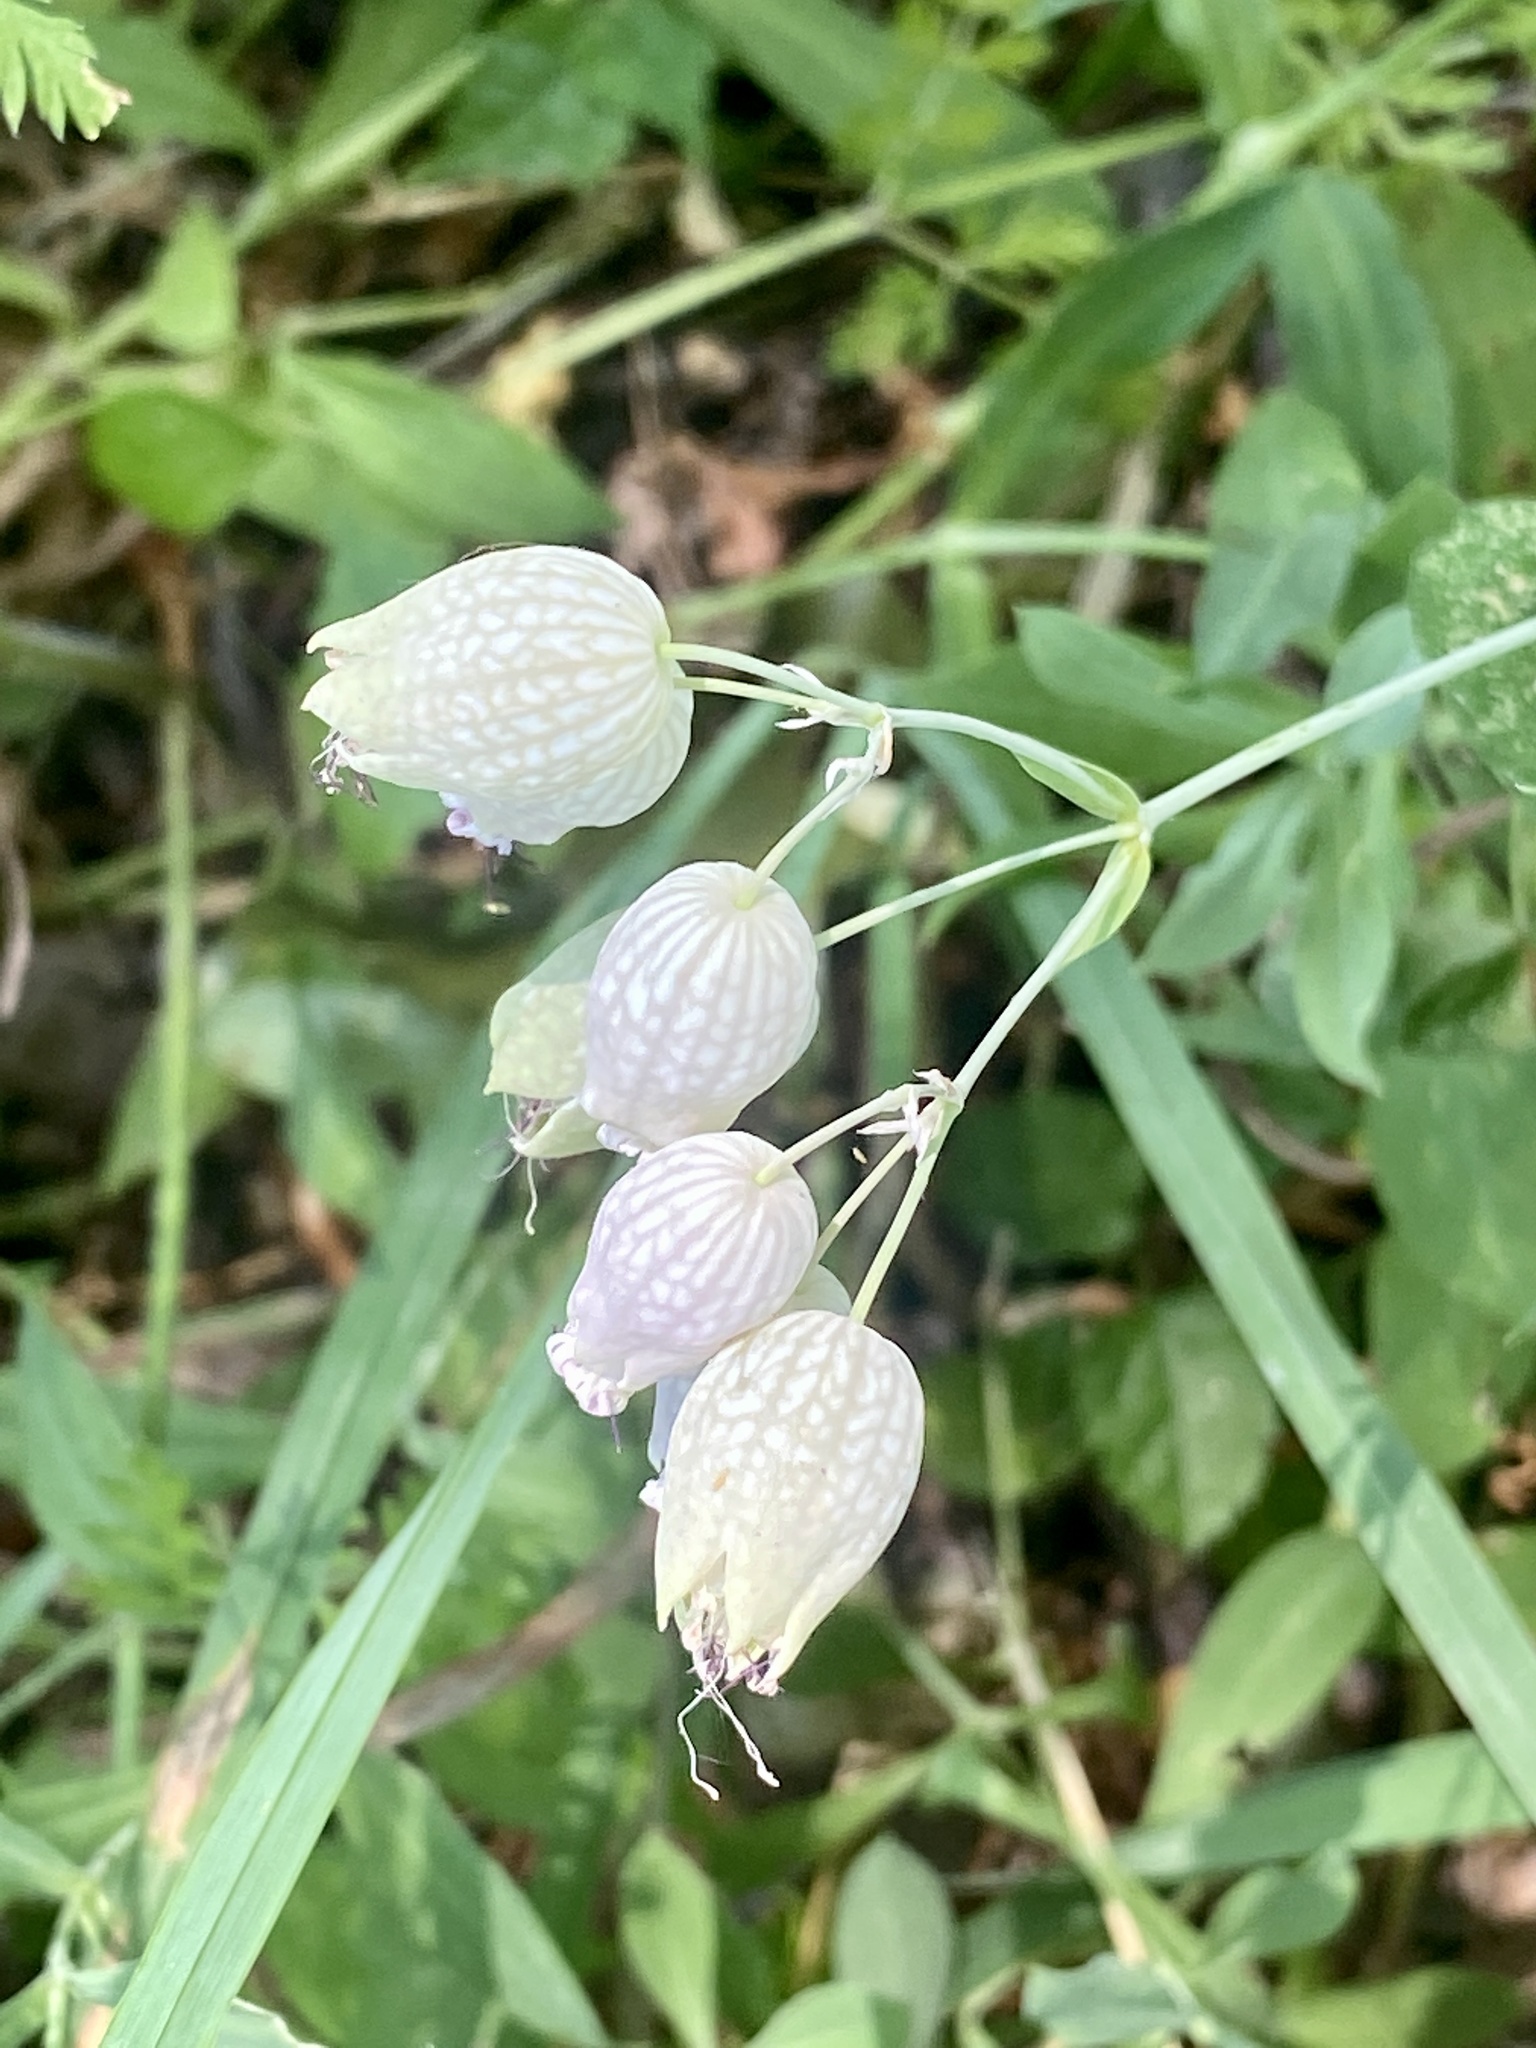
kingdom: Plantae
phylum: Tracheophyta
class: Magnoliopsida
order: Caryophyllales
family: Caryophyllaceae
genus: Silene
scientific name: Silene vulgaris
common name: Bladder campion
